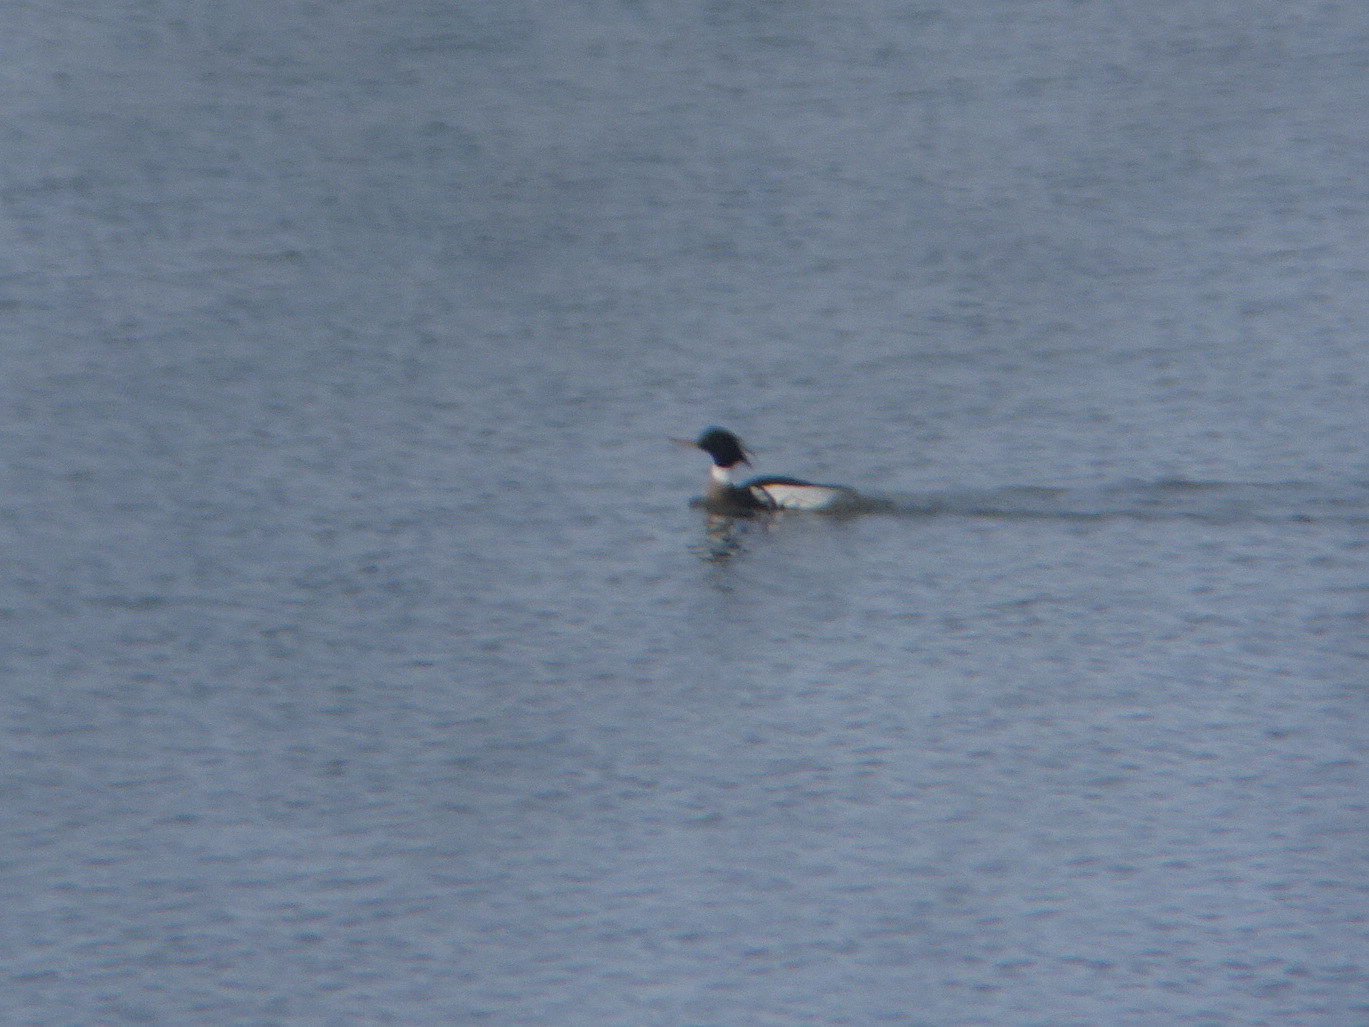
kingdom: Animalia
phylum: Chordata
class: Aves
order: Anseriformes
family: Anatidae
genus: Mergus
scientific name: Mergus serrator
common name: Red-breasted merganser
